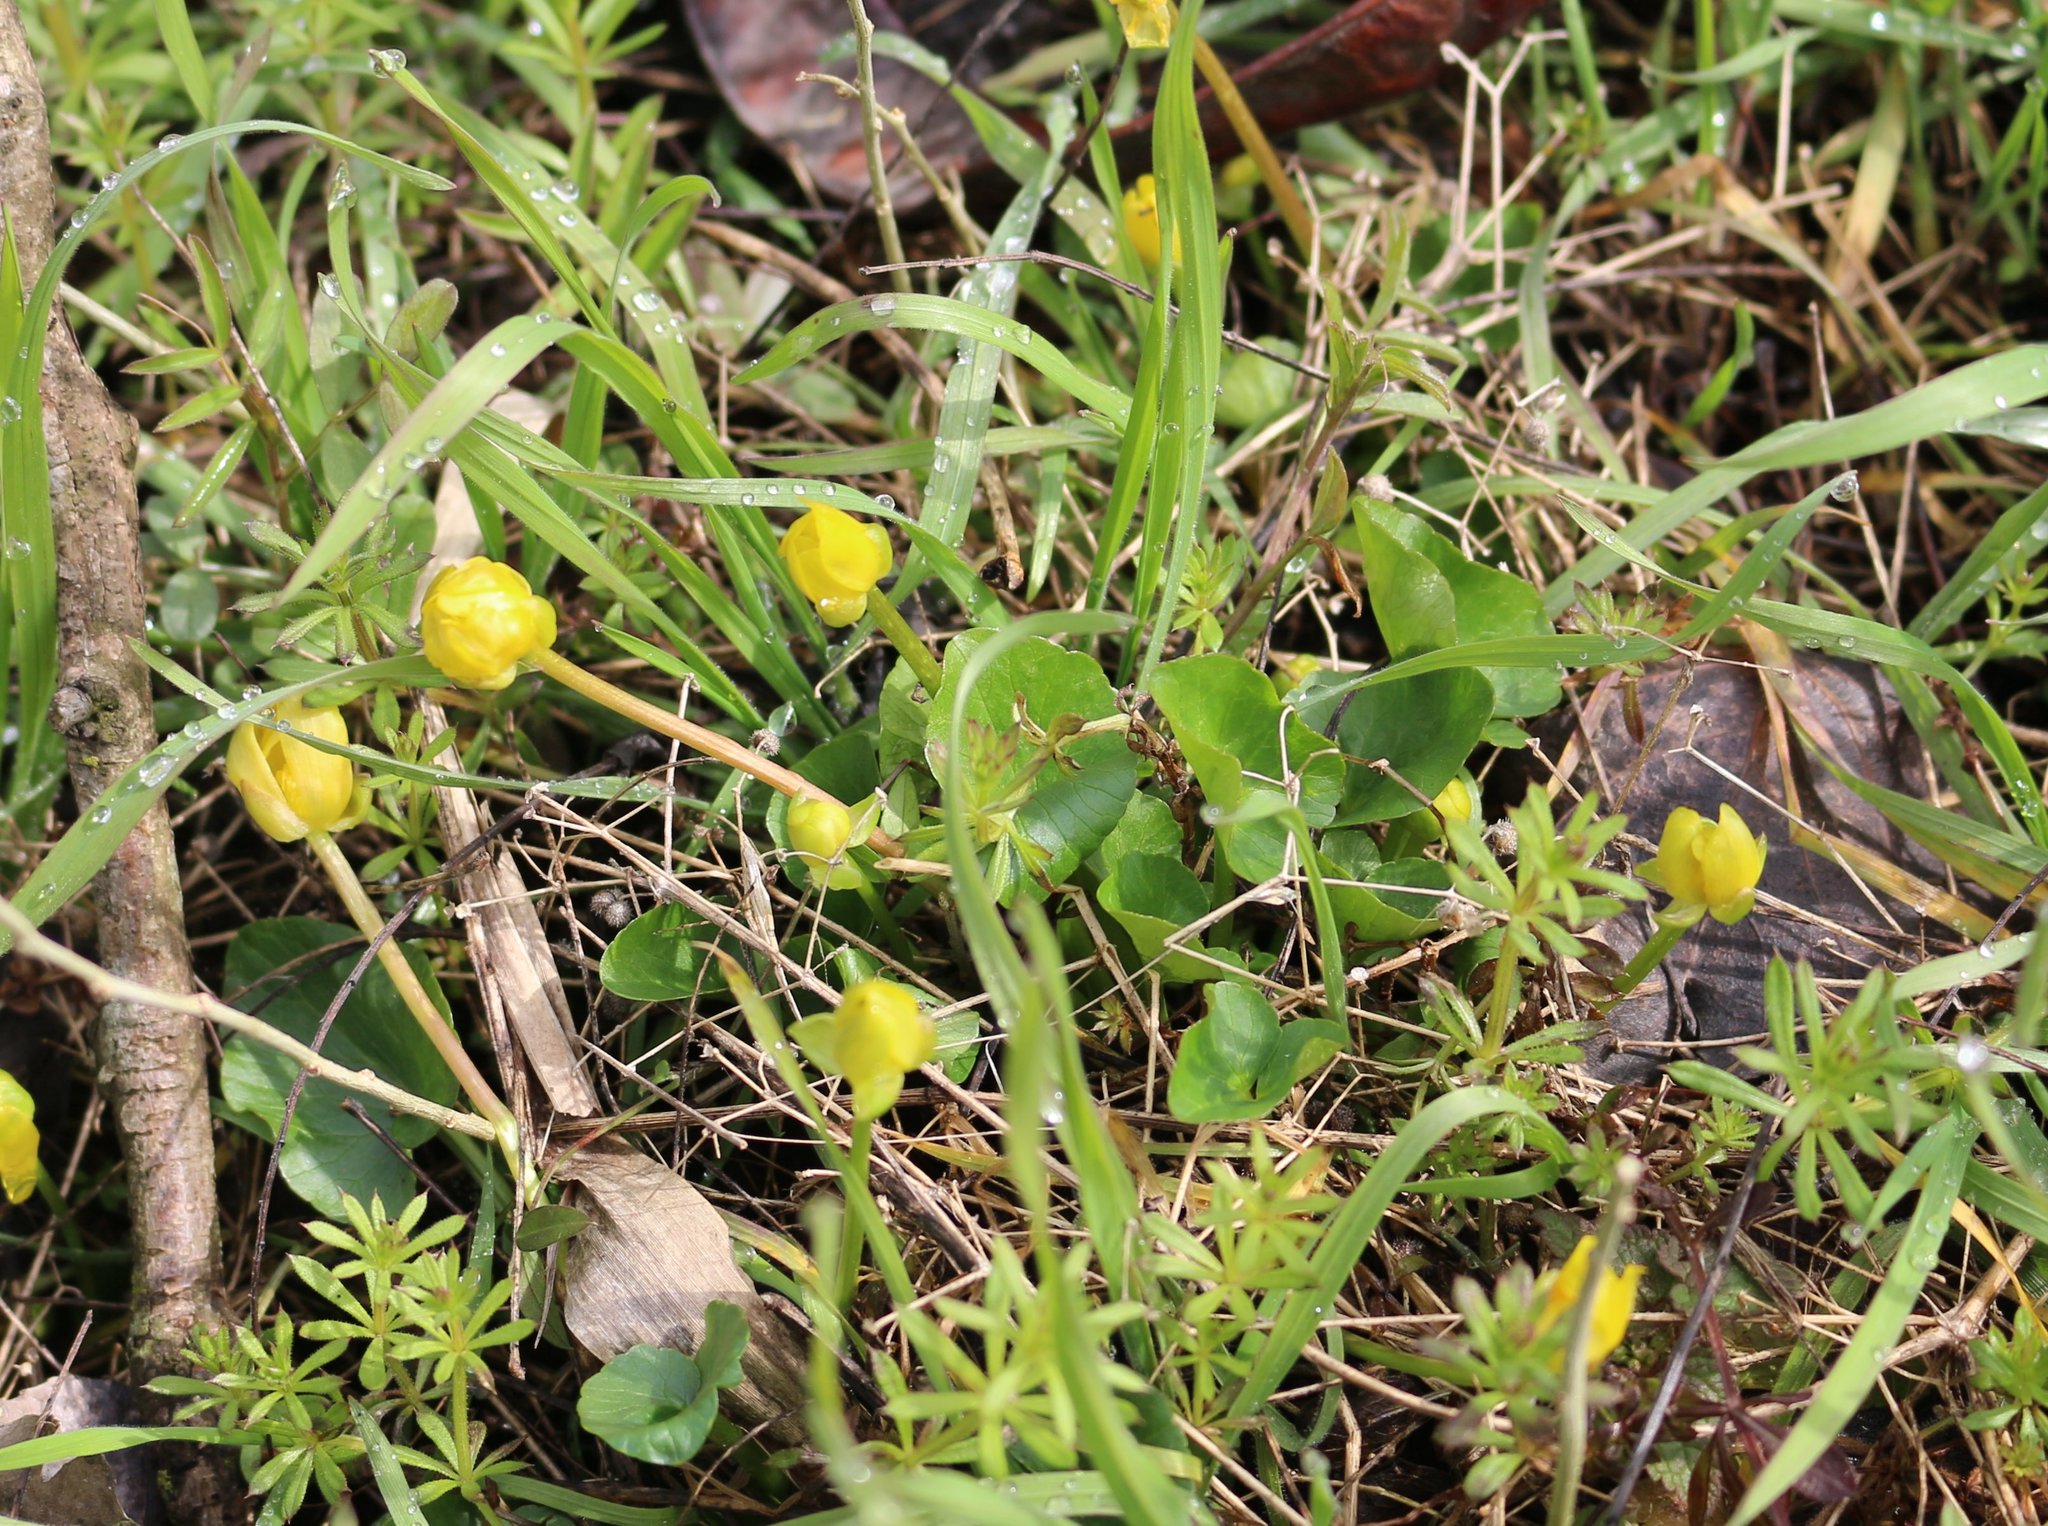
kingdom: Plantae
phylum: Tracheophyta
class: Magnoliopsida
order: Ranunculales
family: Ranunculaceae
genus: Ficaria
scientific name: Ficaria verna
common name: Lesser celandine
